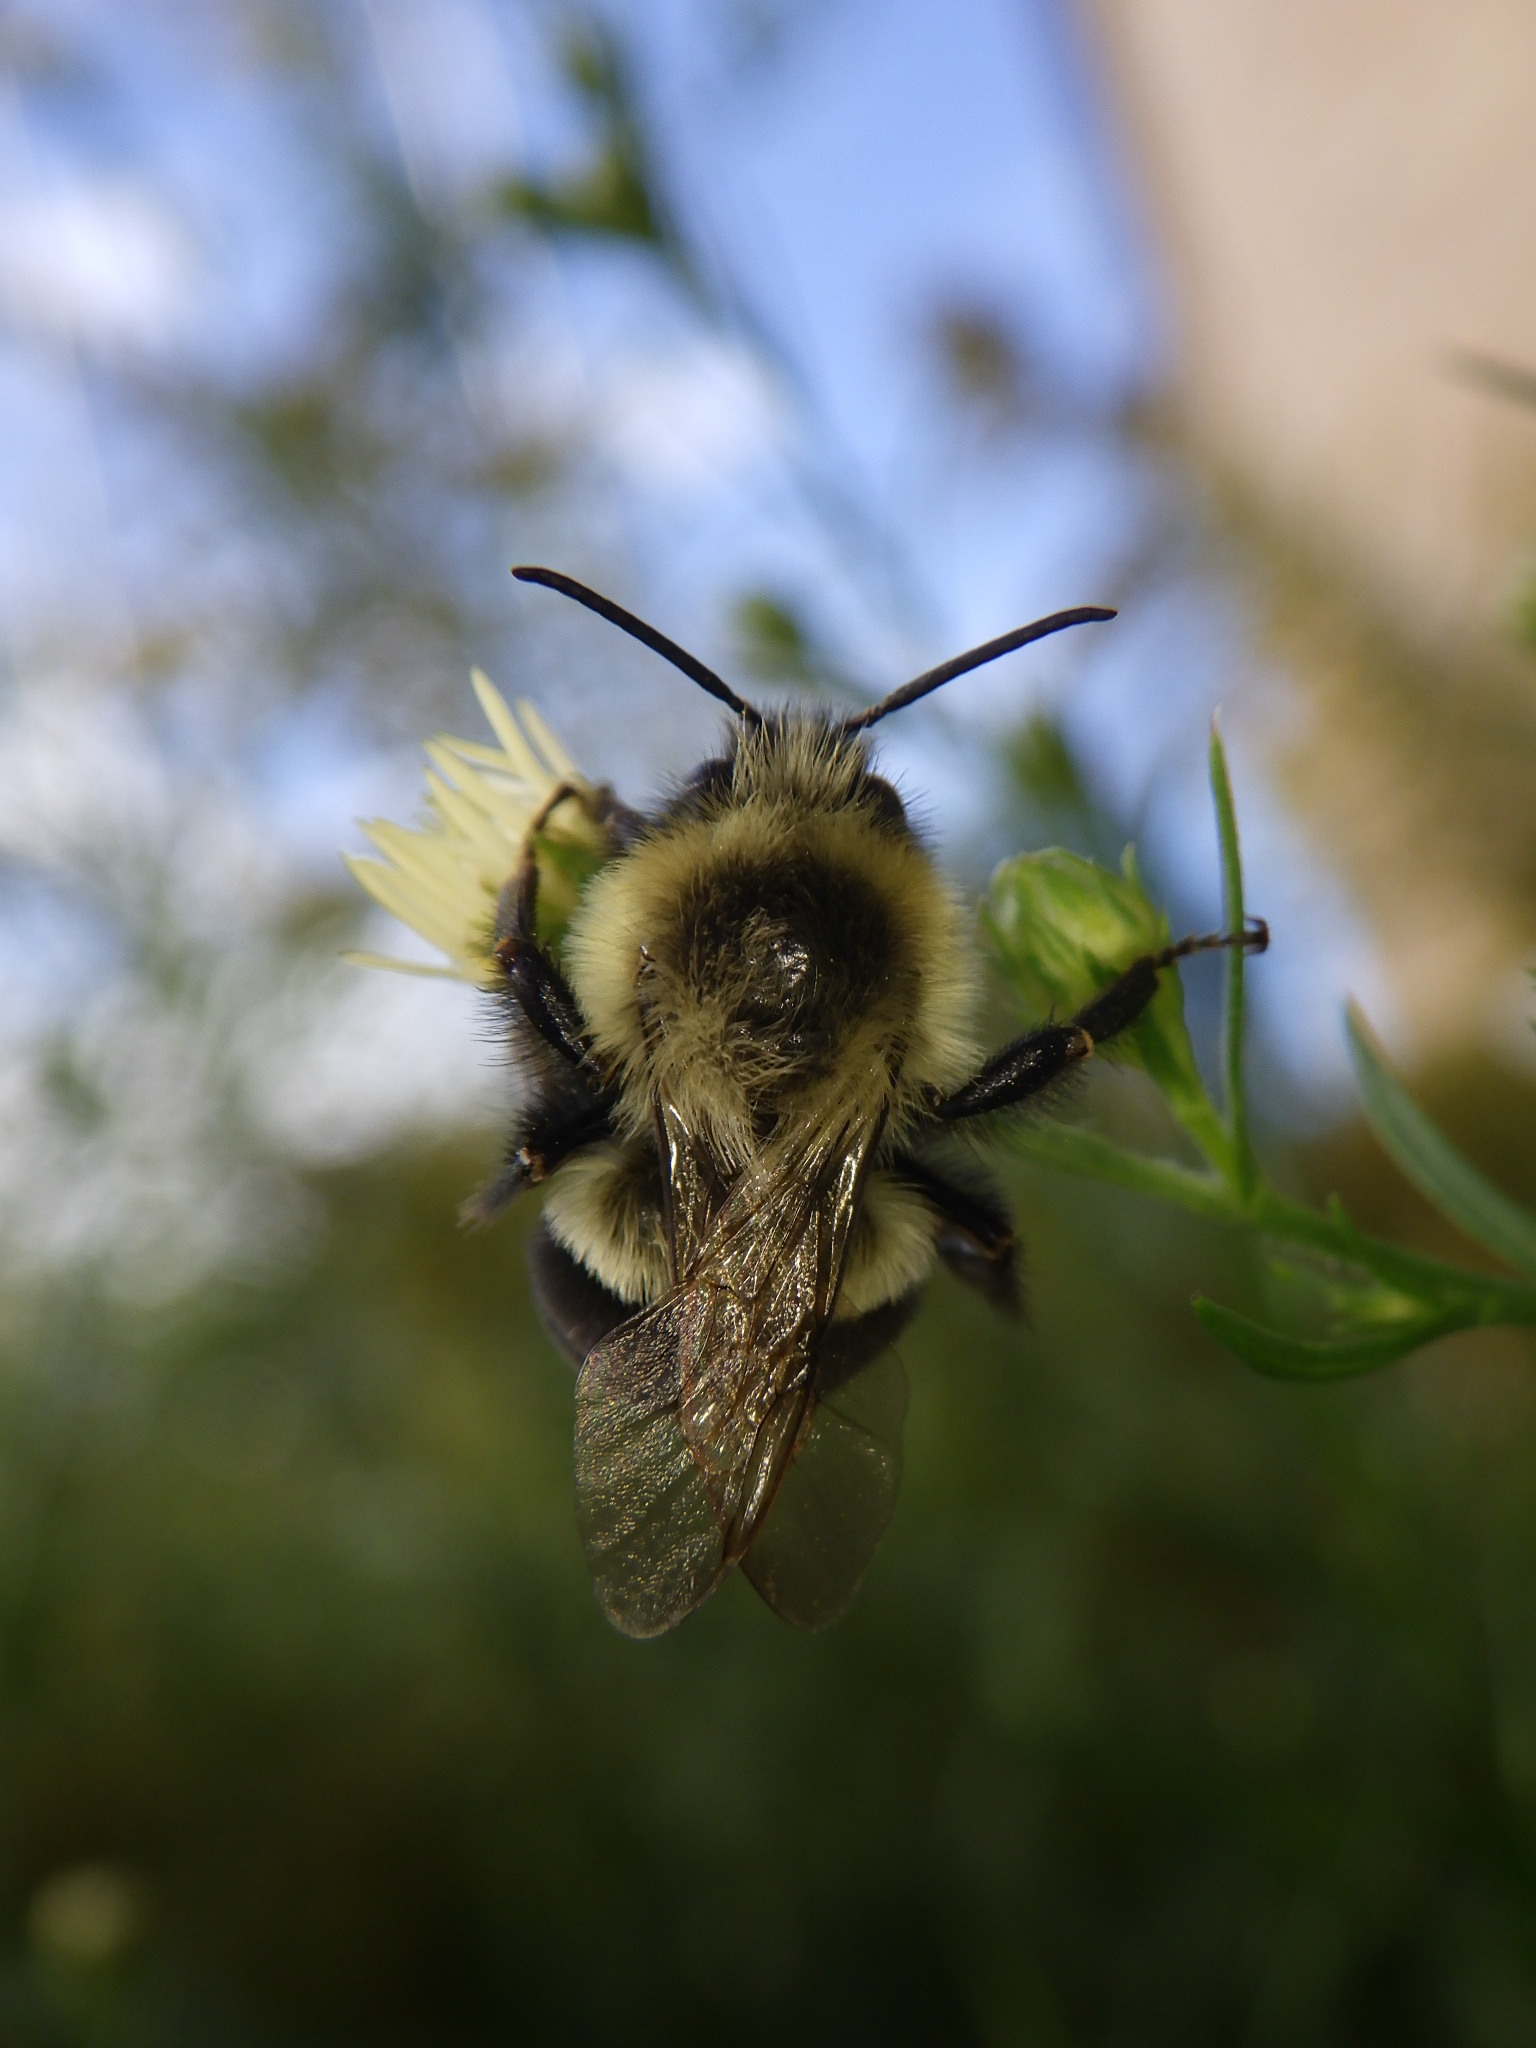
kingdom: Animalia
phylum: Arthropoda
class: Insecta
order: Hymenoptera
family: Apidae
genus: Bombus
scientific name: Bombus impatiens
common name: Common eastern bumble bee
